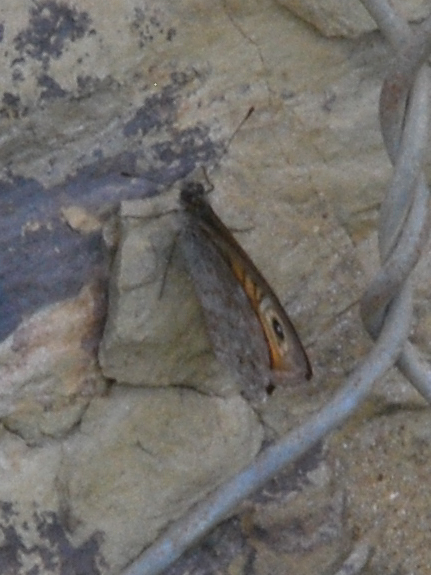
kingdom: Animalia
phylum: Arthropoda
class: Insecta
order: Lepidoptera
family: Nymphalidae
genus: Pararge
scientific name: Pararge Lasiommata maera
